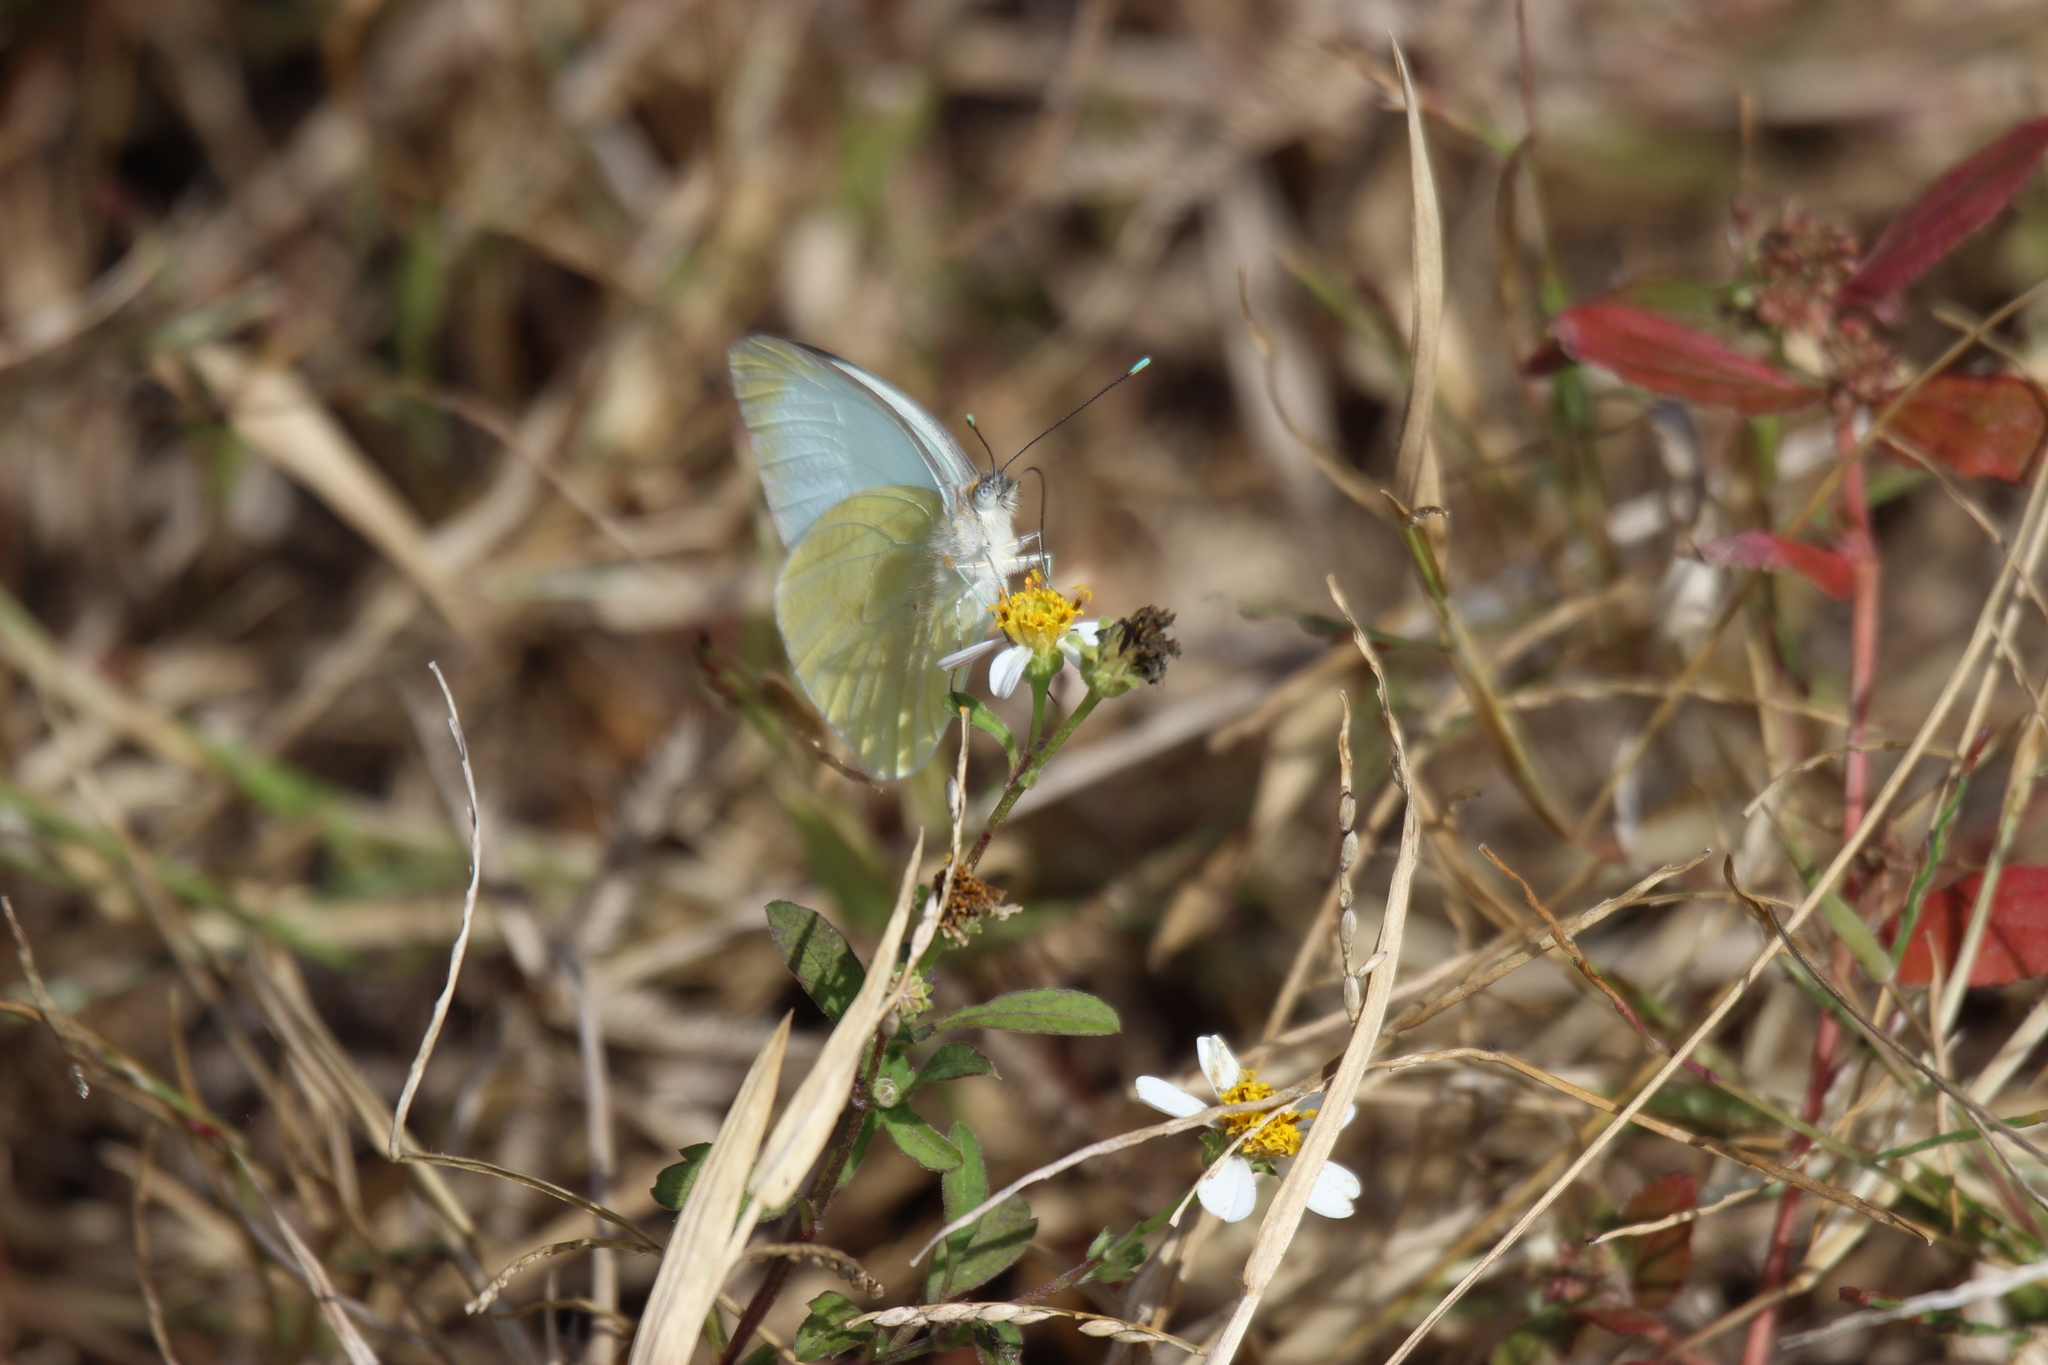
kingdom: Animalia
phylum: Arthropoda
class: Insecta
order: Lepidoptera
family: Pieridae
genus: Ascia
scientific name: Ascia monuste
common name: Great southern white
